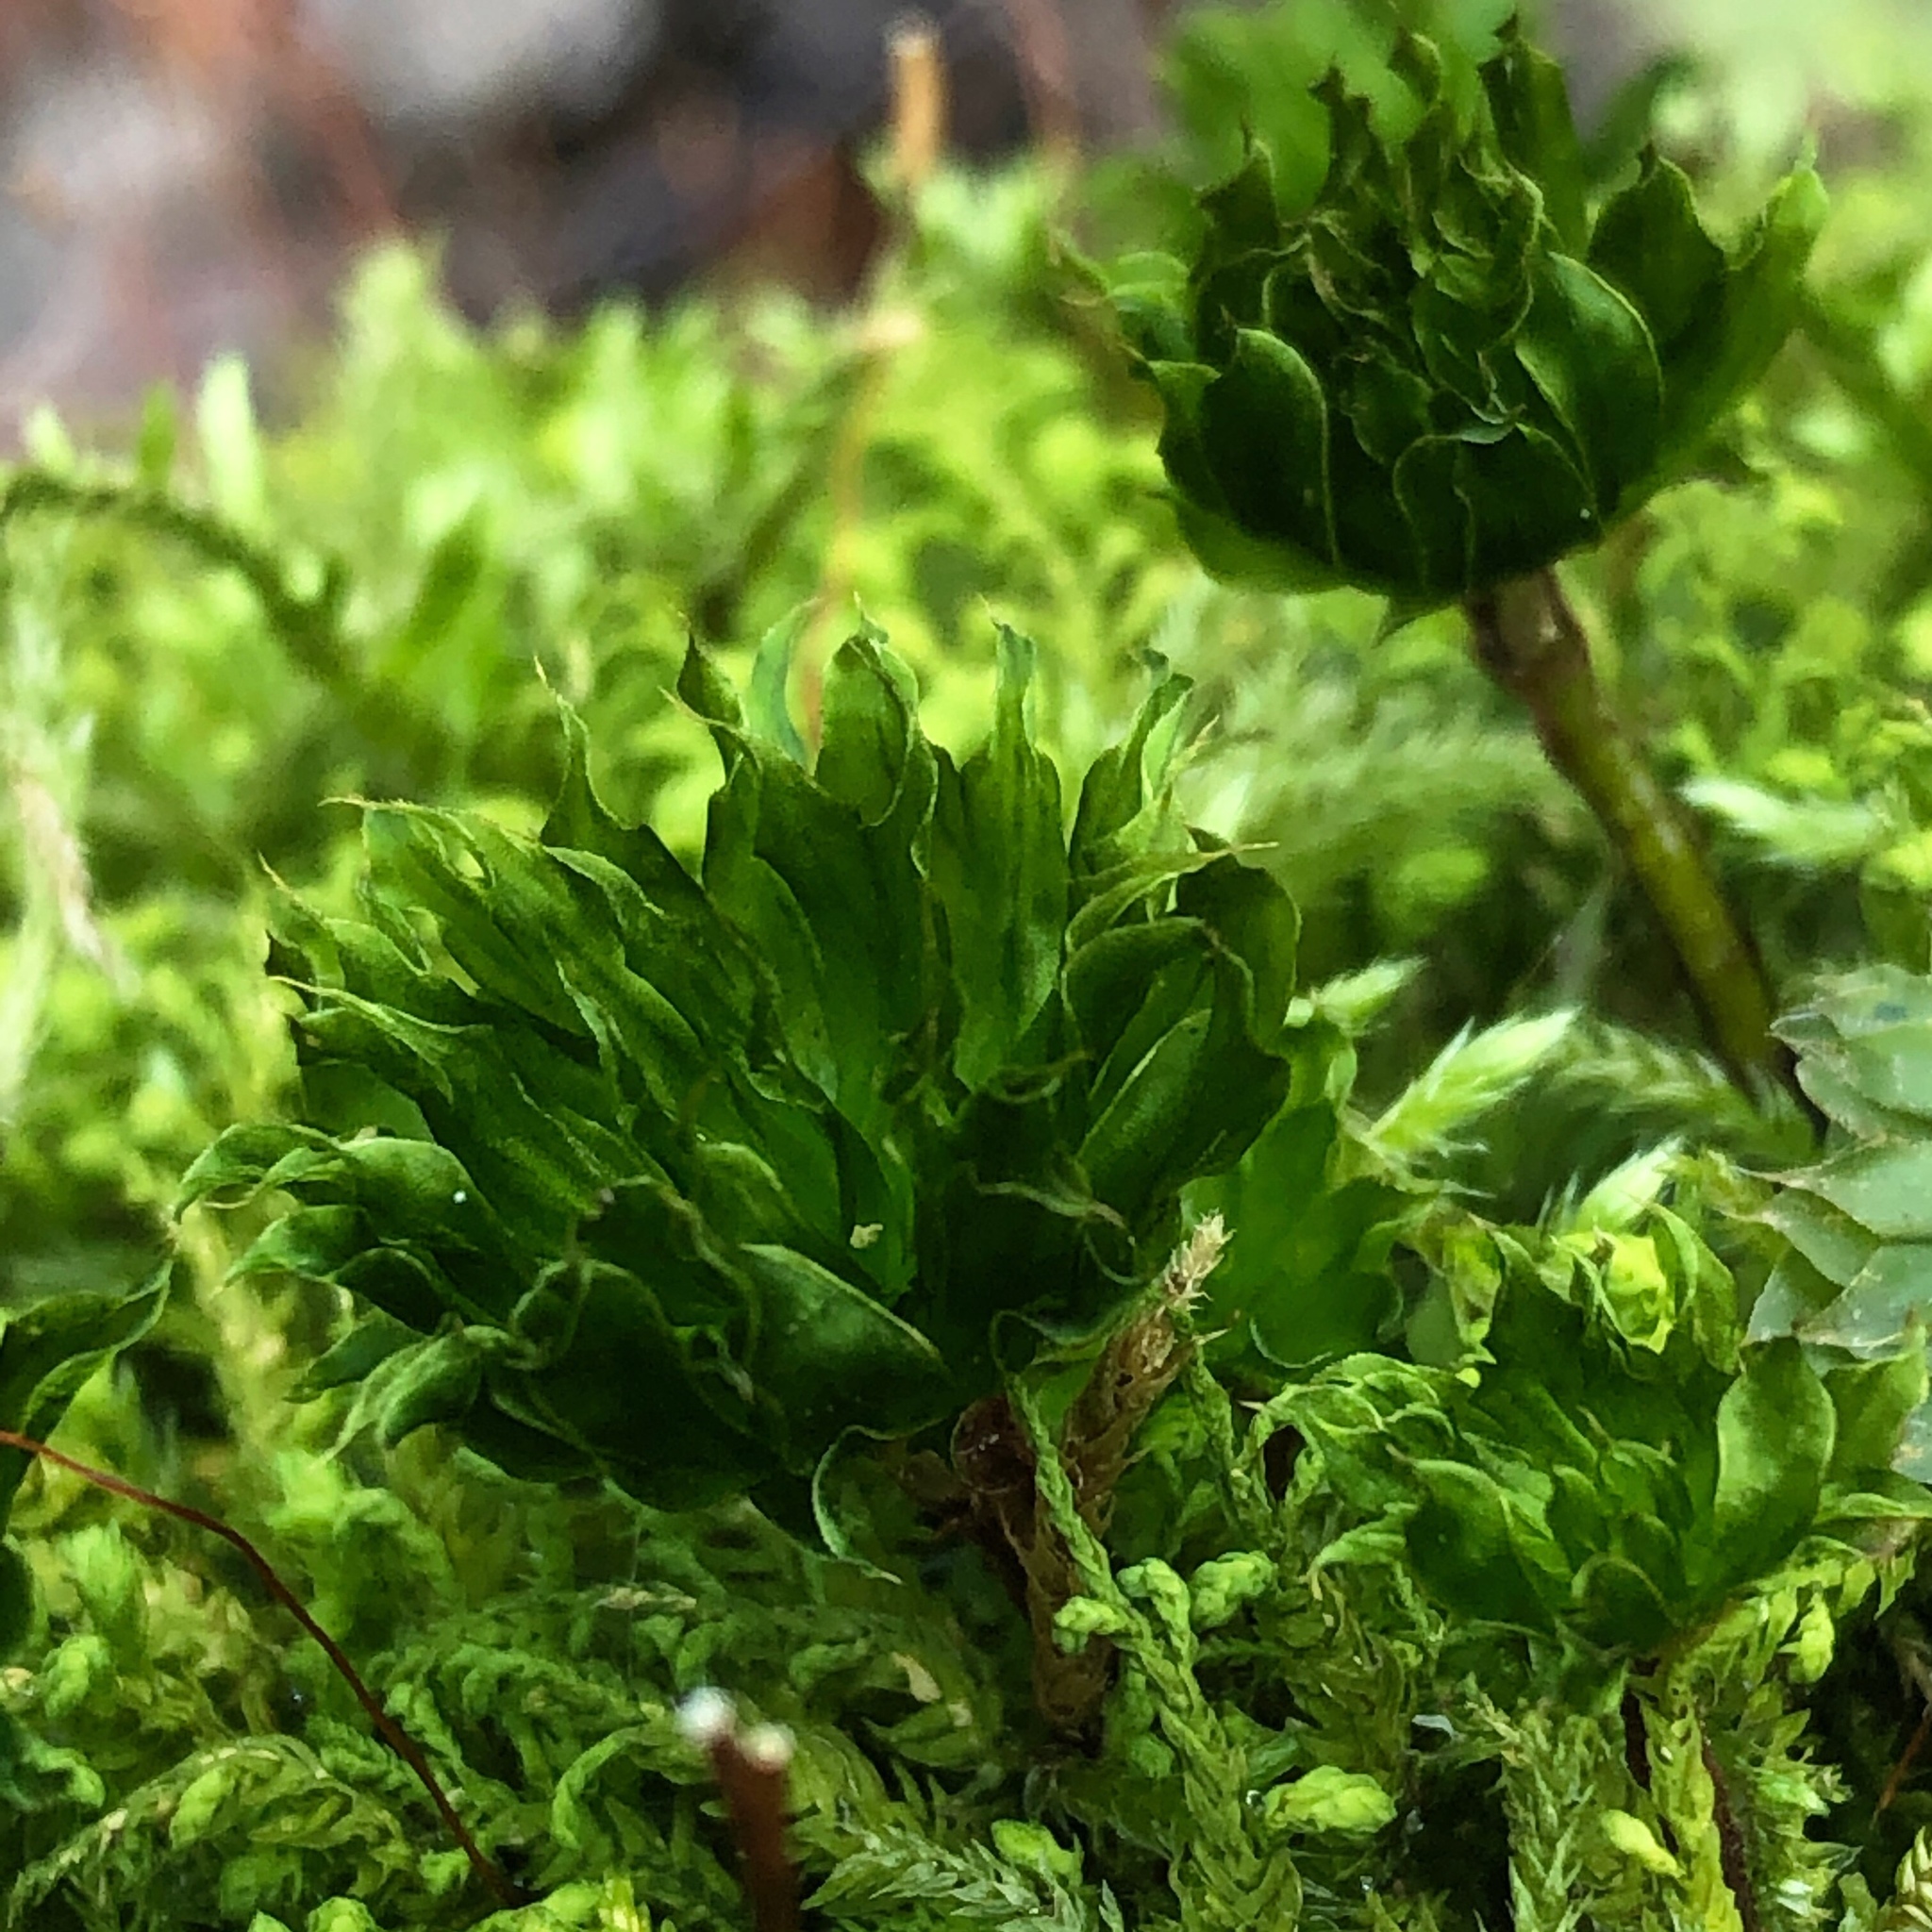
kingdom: Plantae
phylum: Bryophyta
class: Bryopsida
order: Bryales
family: Bryaceae
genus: Rhodobryum
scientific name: Rhodobryum ontariense
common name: Ontario rhodobryum moss
